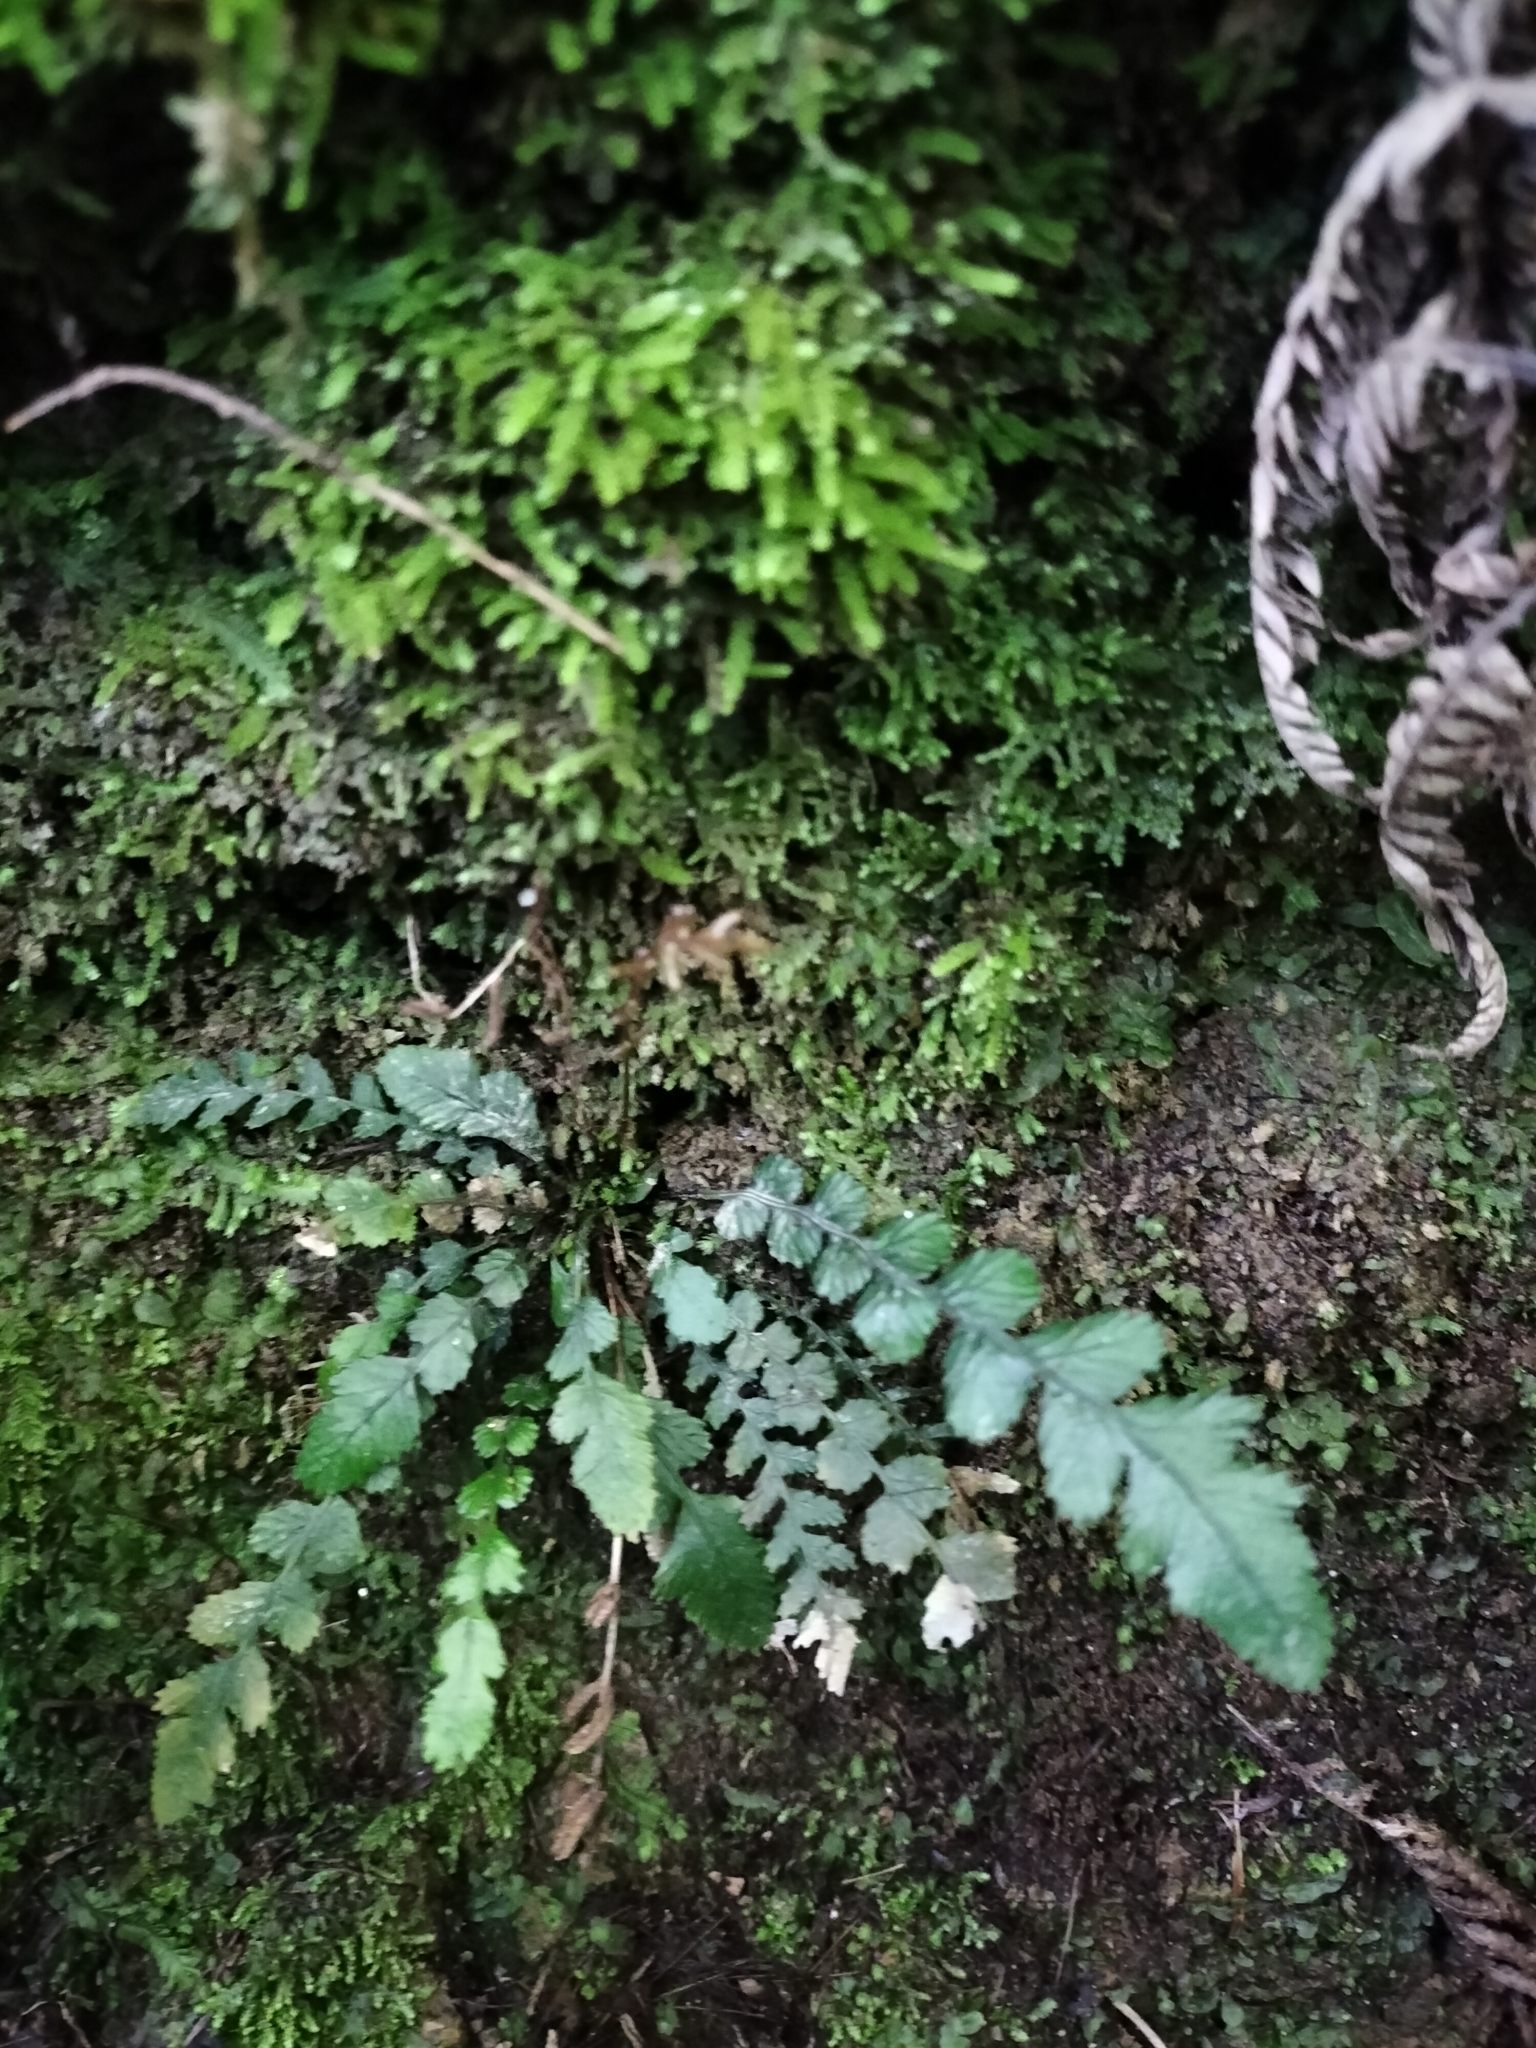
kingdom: Plantae
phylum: Tracheophyta
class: Polypodiopsida
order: Polypodiales
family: Blechnaceae
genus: Austroblechnum
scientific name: Austroblechnum membranaceum
